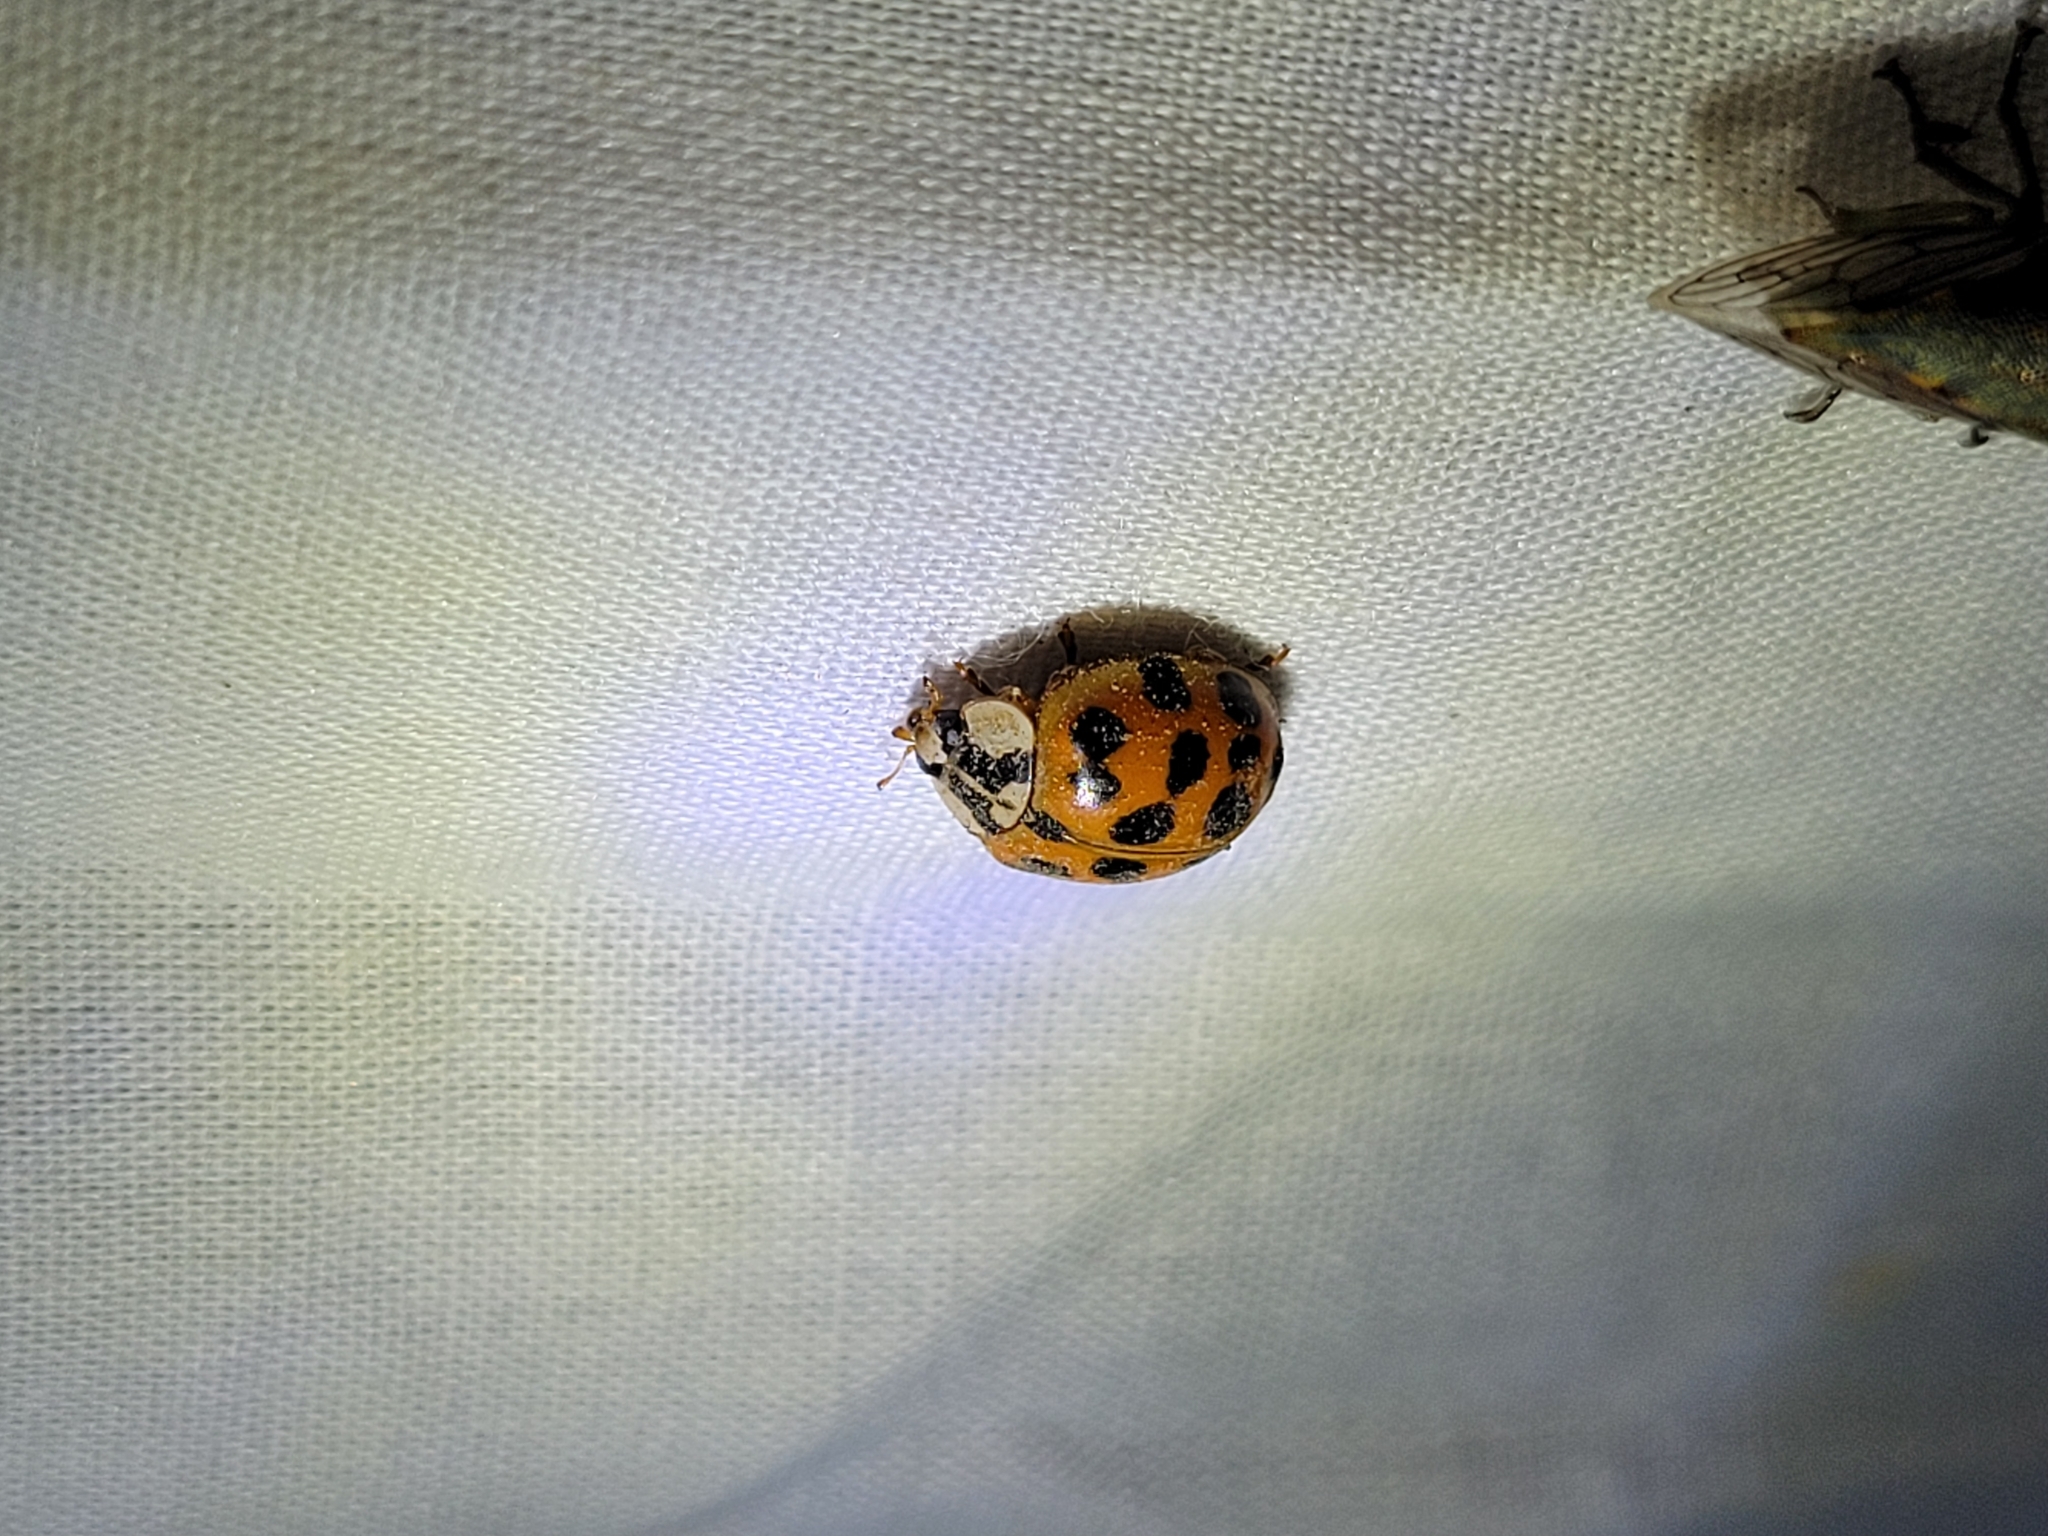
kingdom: Animalia
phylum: Arthropoda
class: Insecta
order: Coleoptera
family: Coccinellidae
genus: Harmonia
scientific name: Harmonia axyridis
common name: Harlequin ladybird
